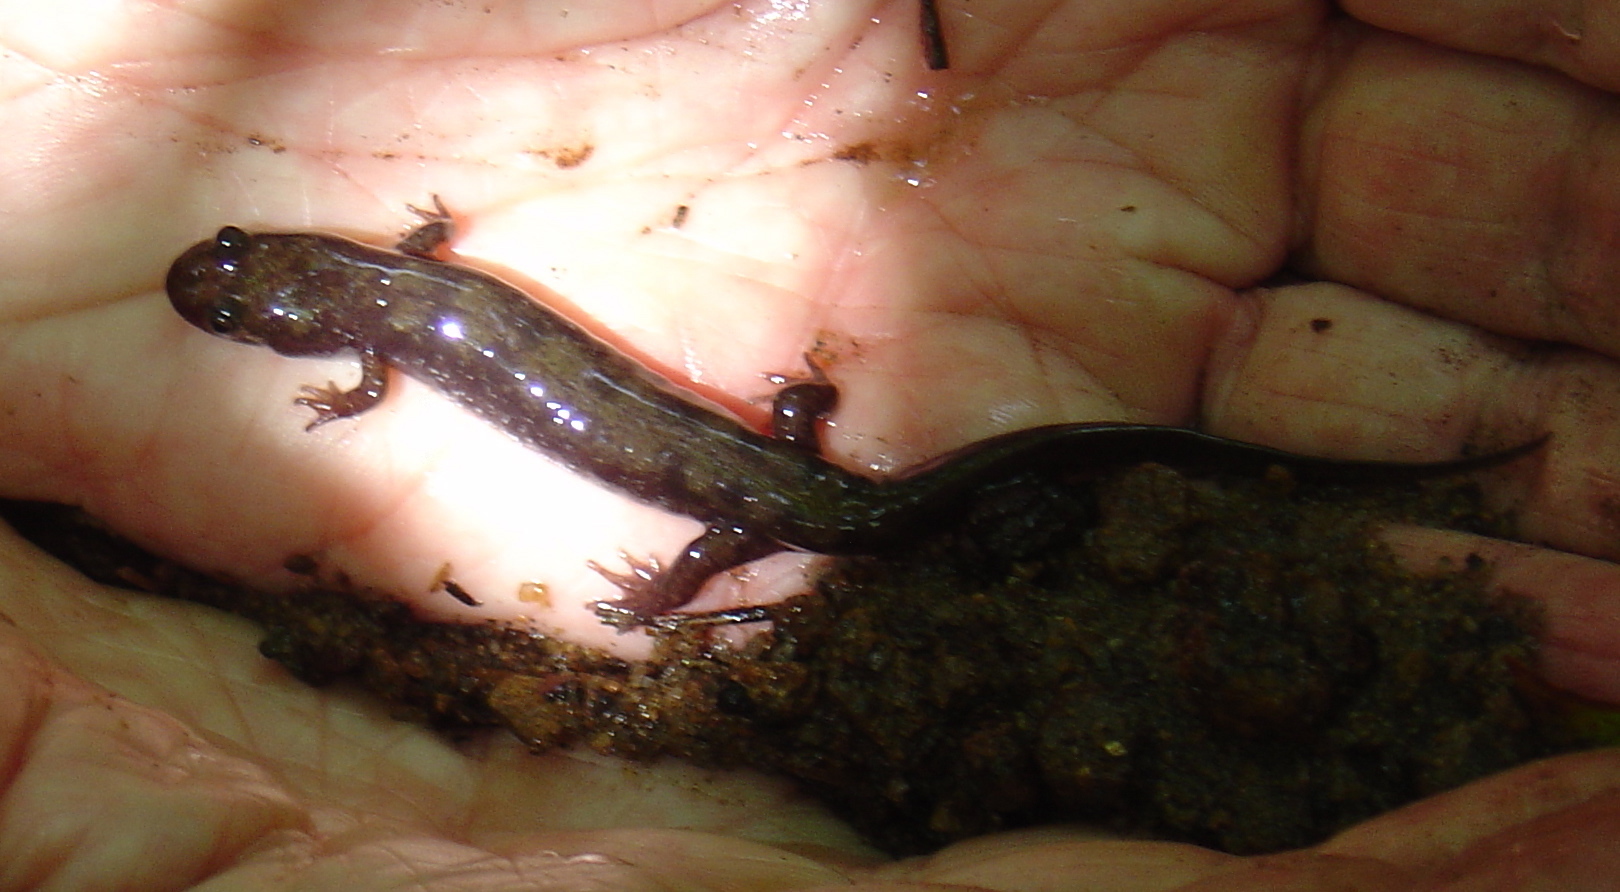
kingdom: Animalia
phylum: Chordata
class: Amphibia
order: Caudata
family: Plethodontidae
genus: Desmognathus
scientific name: Desmognathus monticola
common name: Seal salamander
